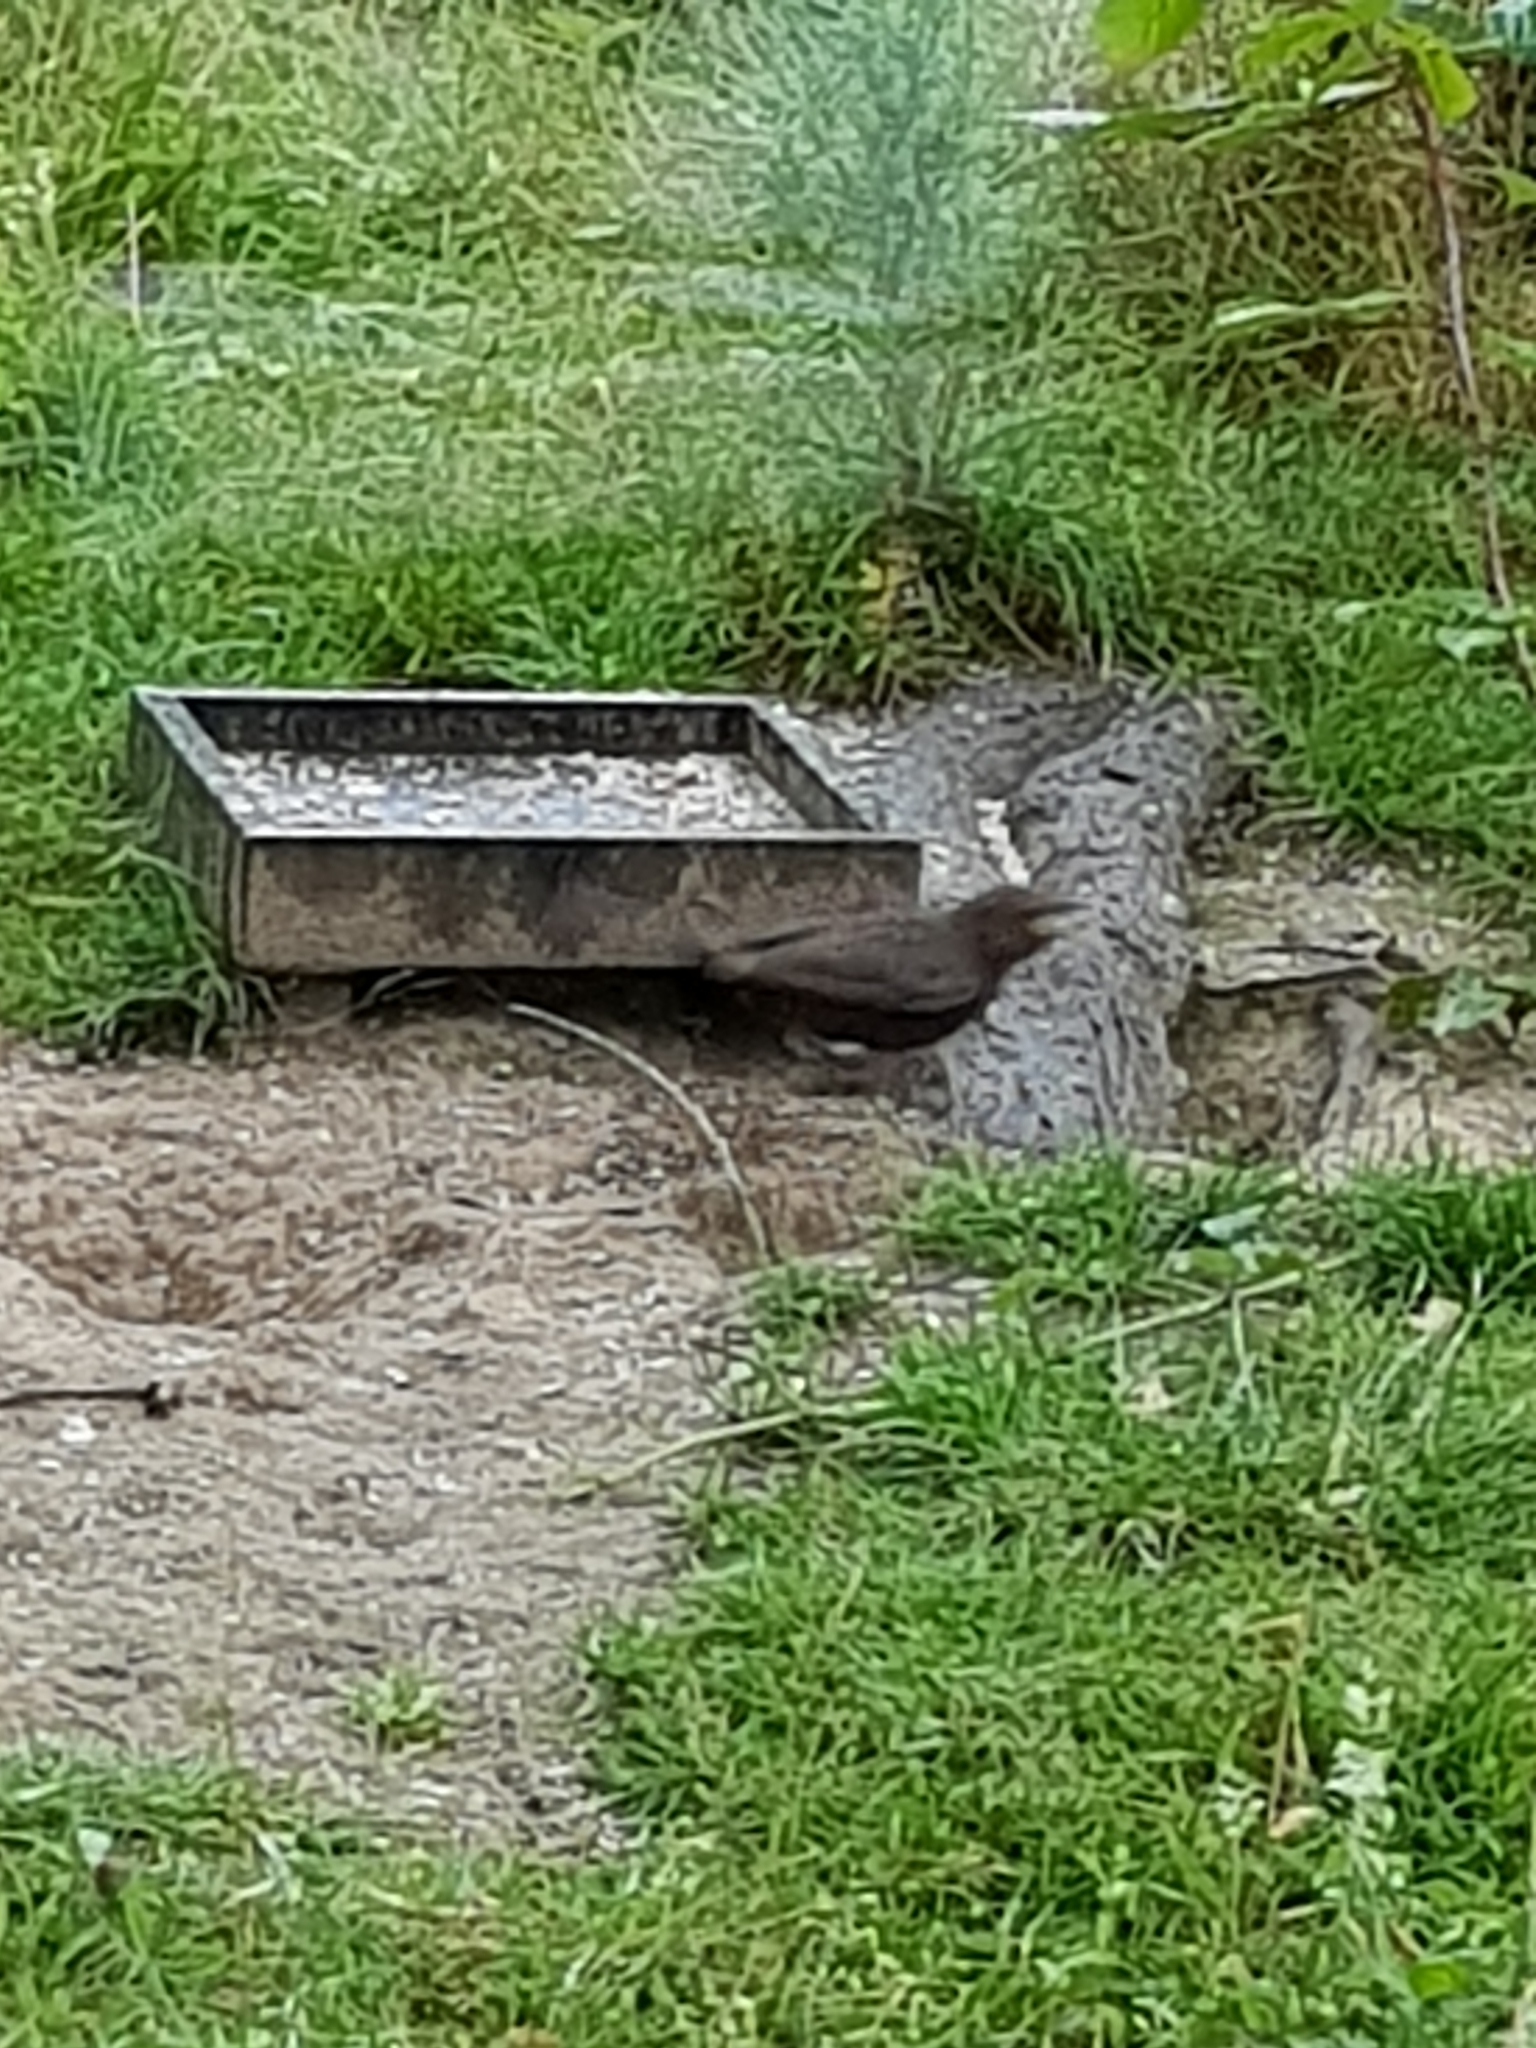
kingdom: Animalia
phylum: Chordata
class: Aves
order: Passeriformes
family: Turdidae
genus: Turdus
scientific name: Turdus merula
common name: Common blackbird
